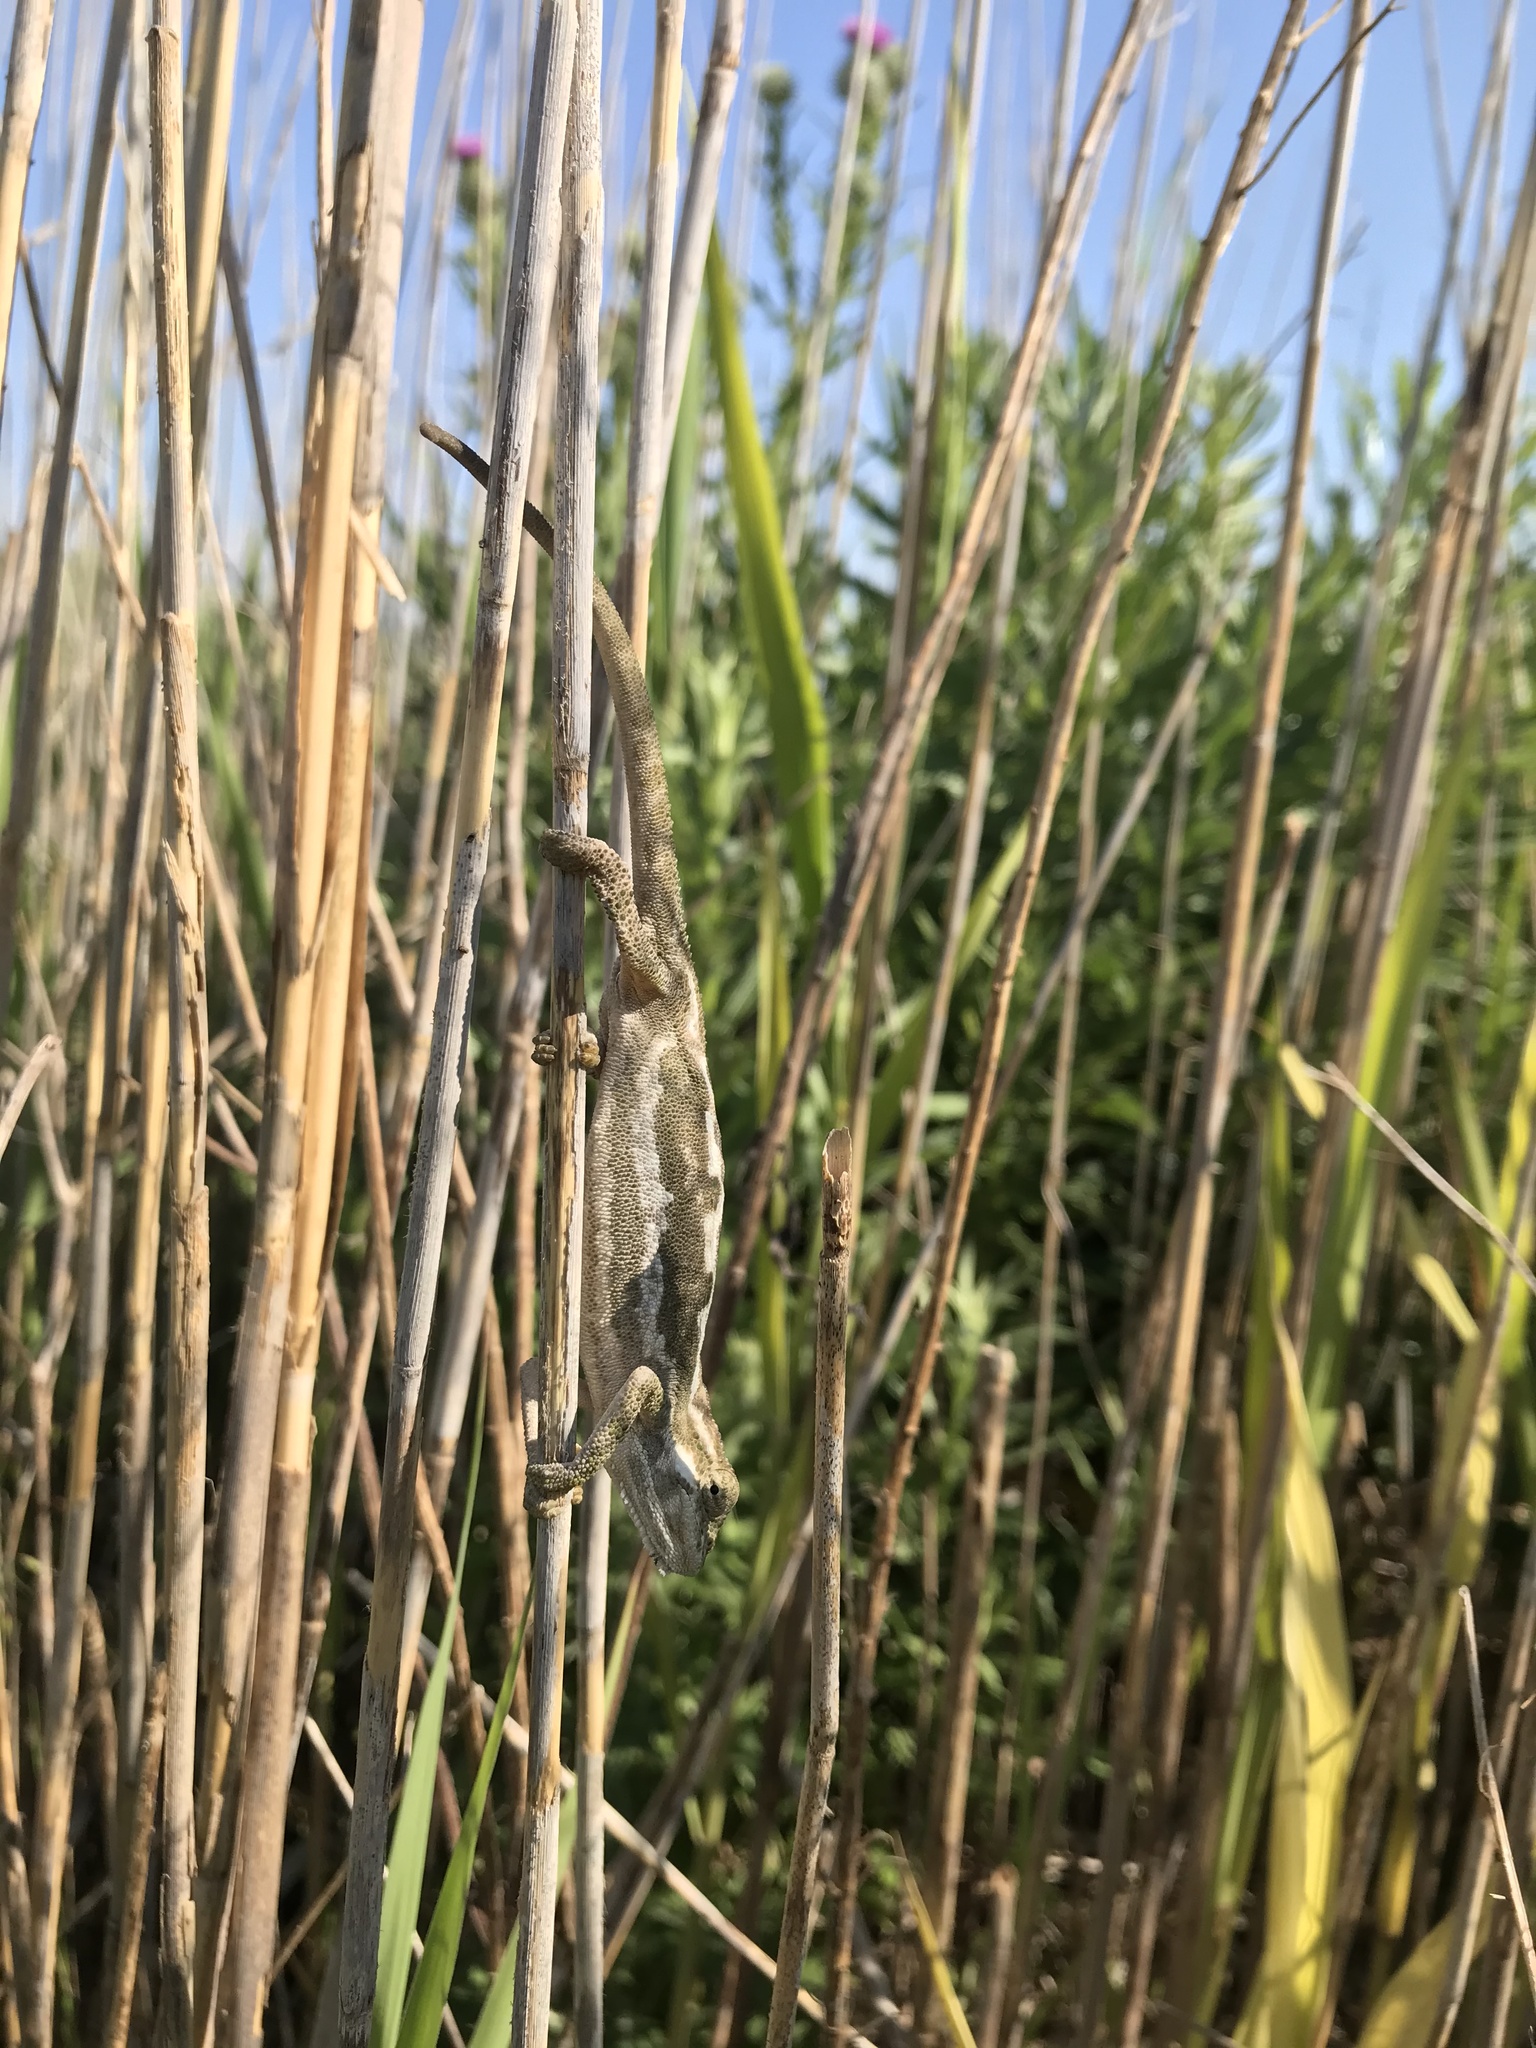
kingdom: Animalia
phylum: Chordata
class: Squamata
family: Chamaeleonidae
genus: Bradypodion
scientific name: Bradypodion pumilum
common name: Cape dwarf chameleon
